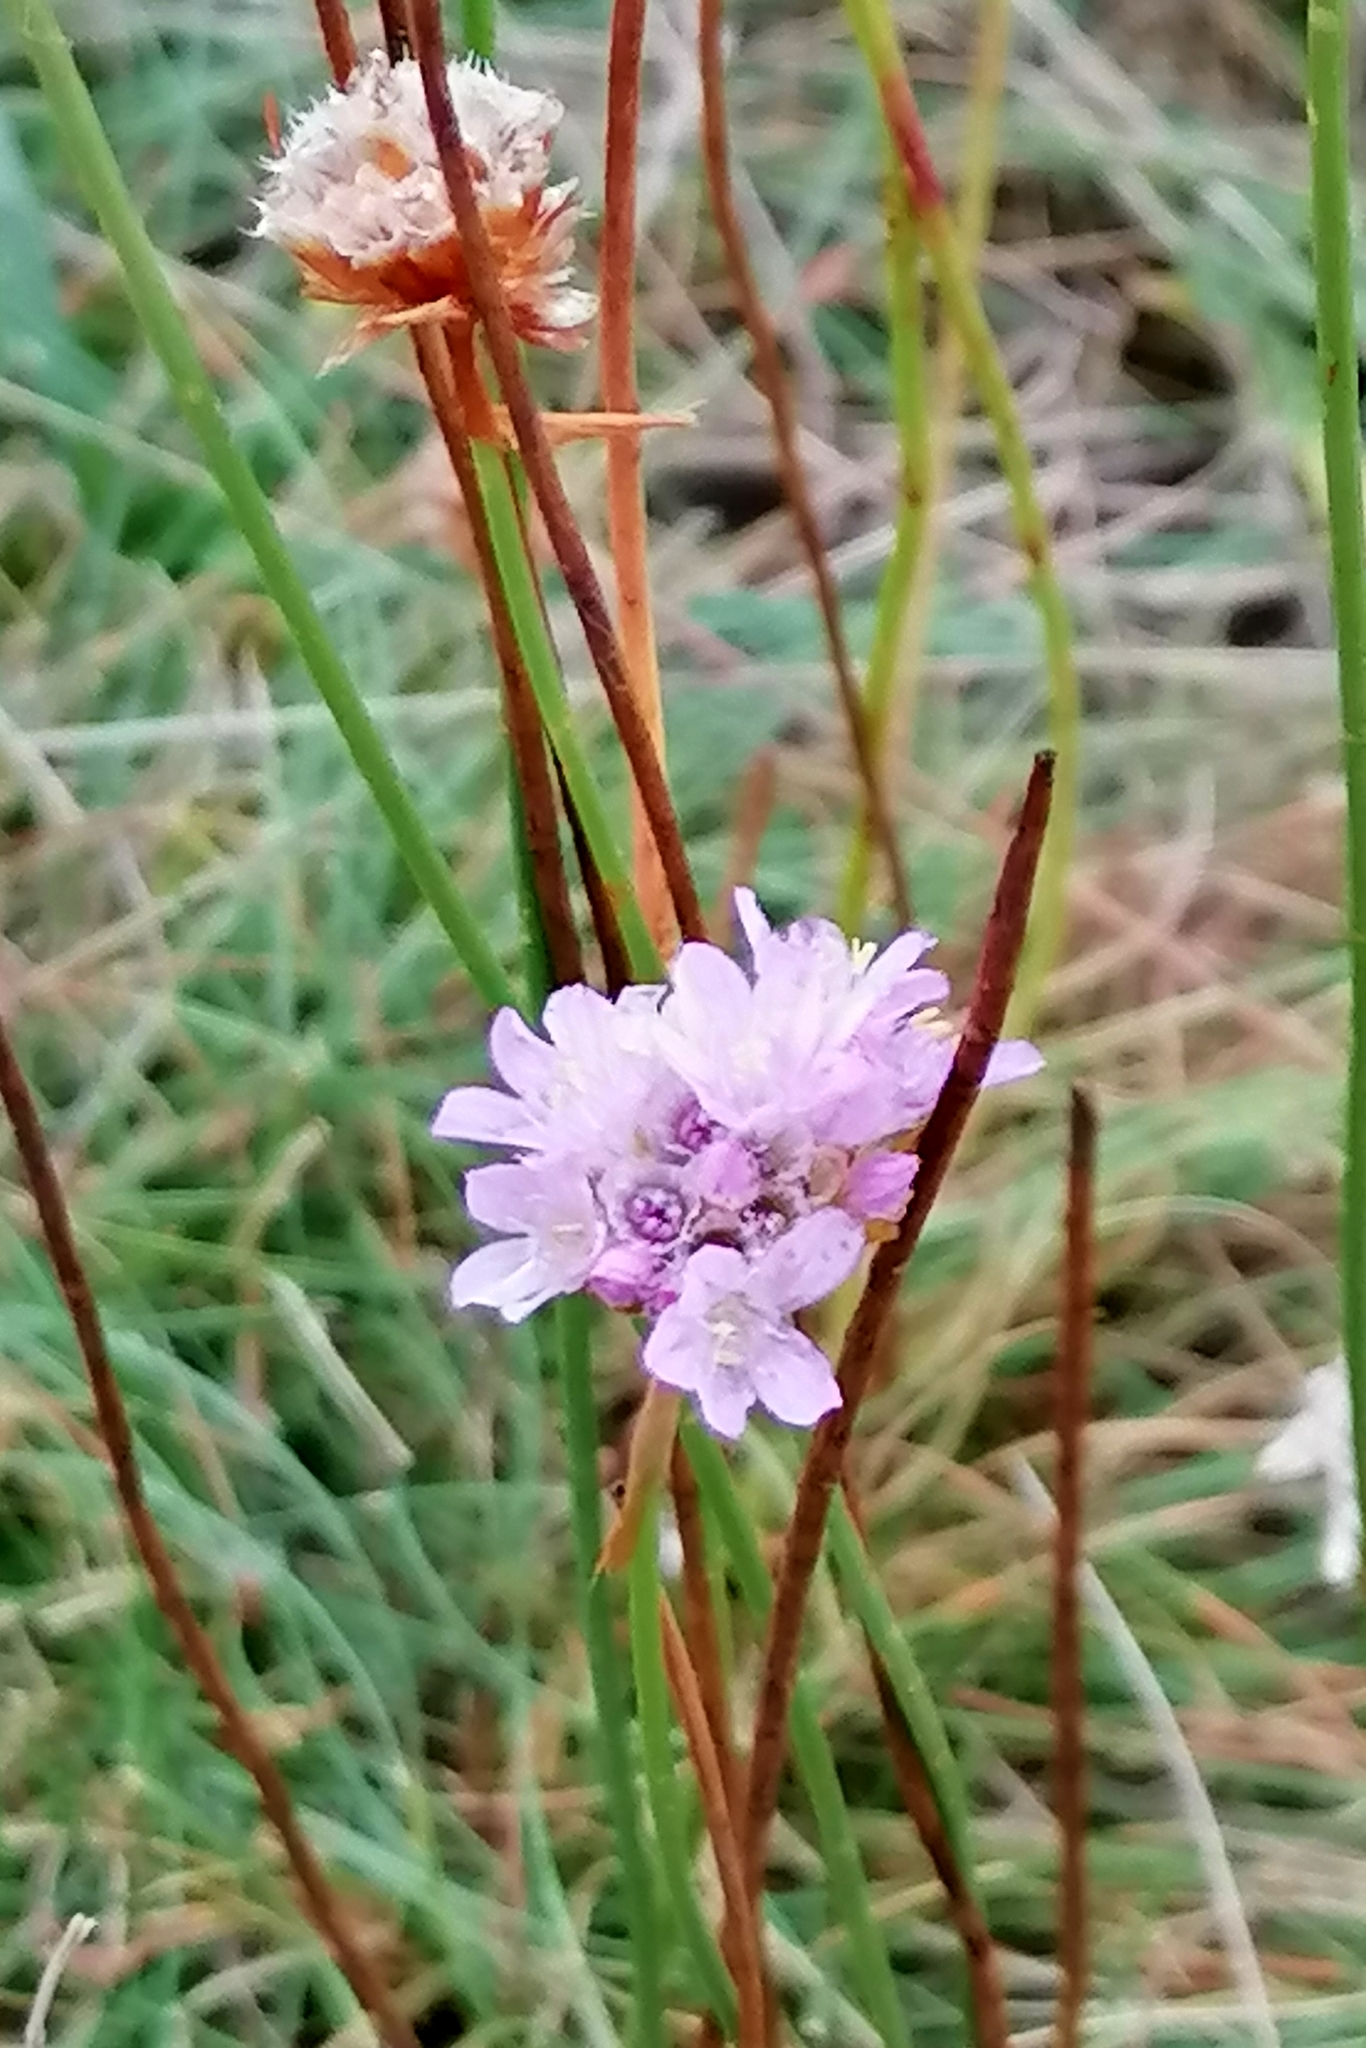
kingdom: Plantae
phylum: Tracheophyta
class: Magnoliopsida
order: Caryophyllales
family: Plumbaginaceae
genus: Armeria
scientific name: Armeria maritima
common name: Thrift
